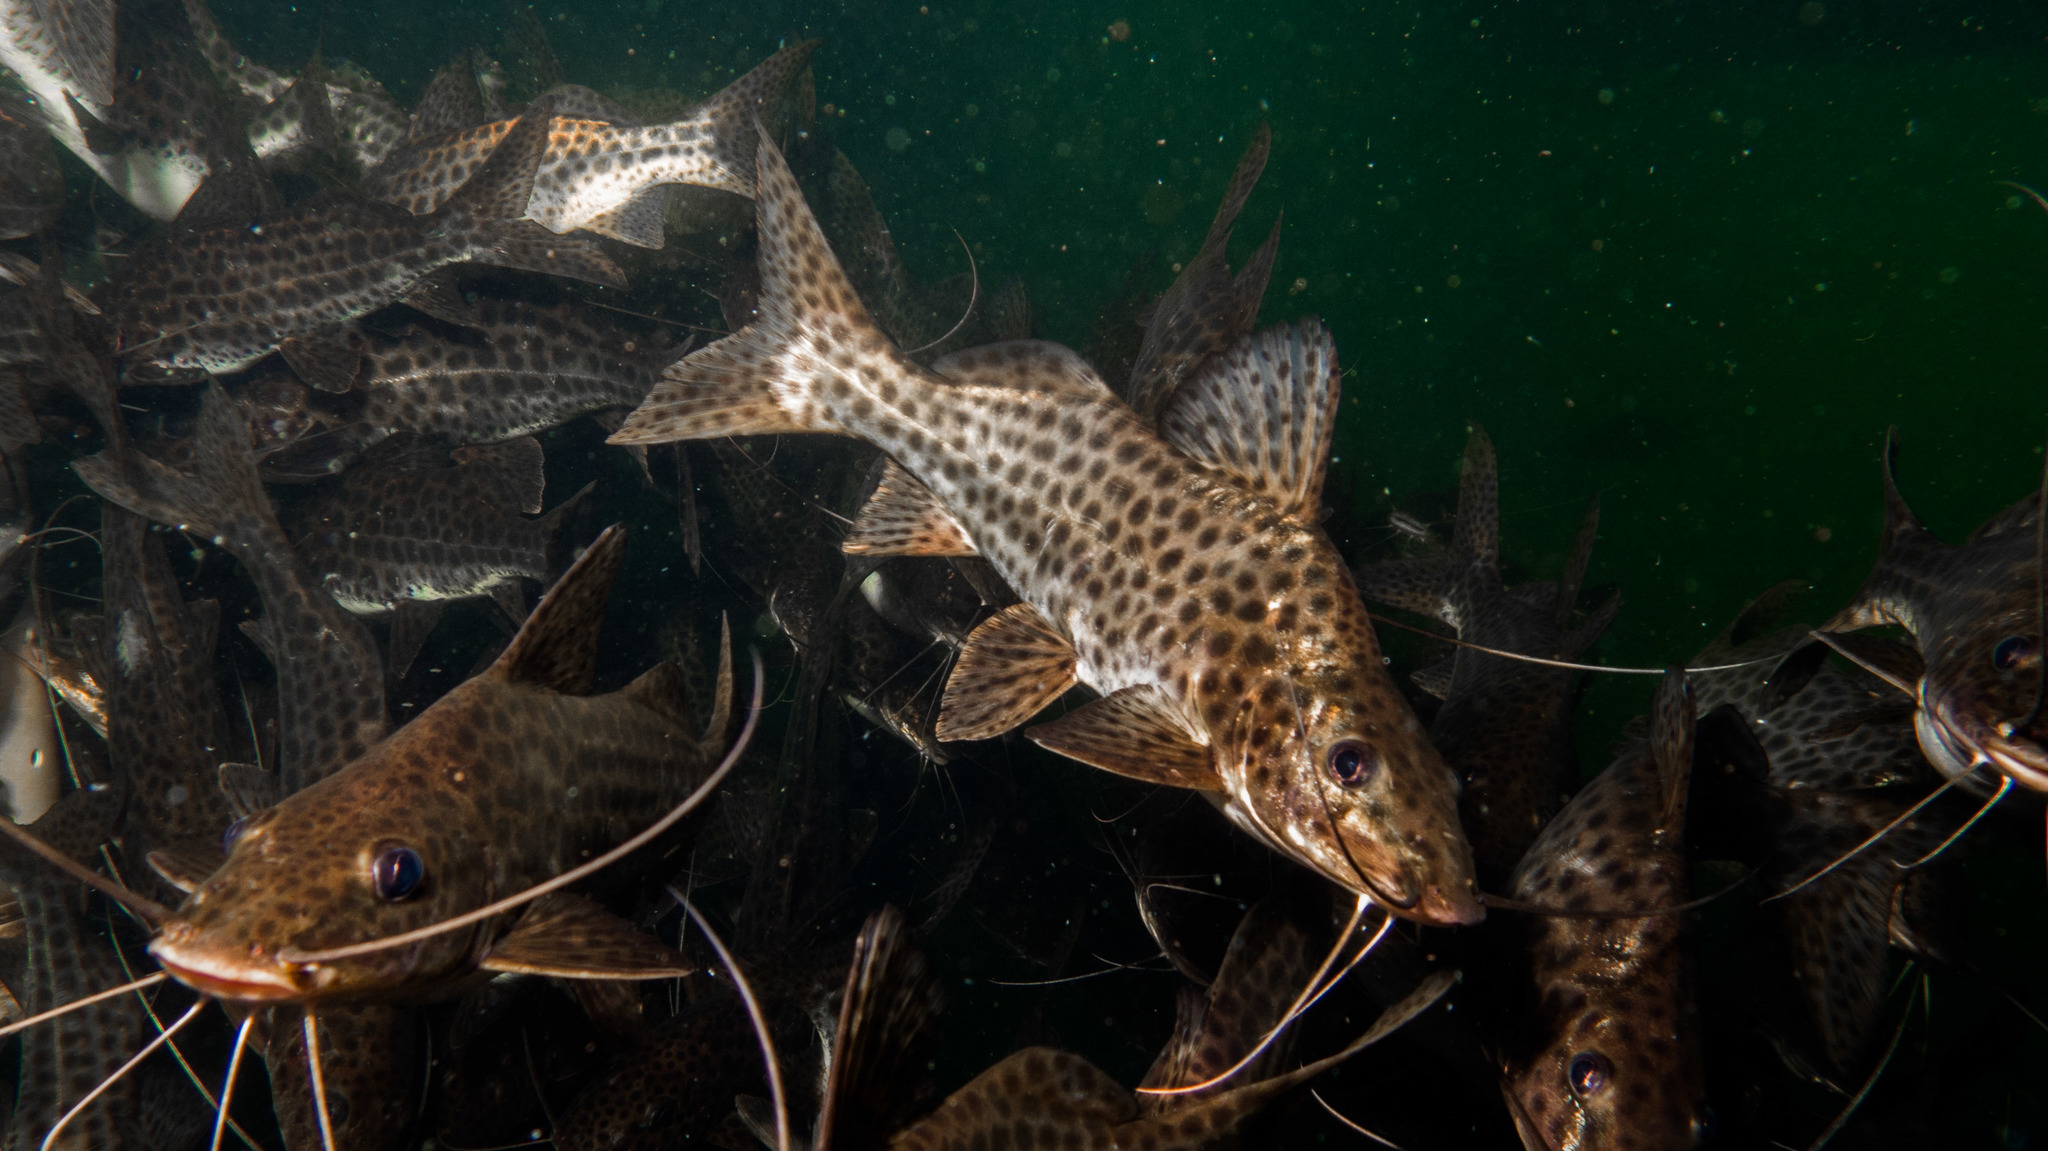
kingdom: Animalia
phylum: Chordata
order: Siluriformes
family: Pimelodidae
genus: Pimelodus
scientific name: Pimelodus maculatus
